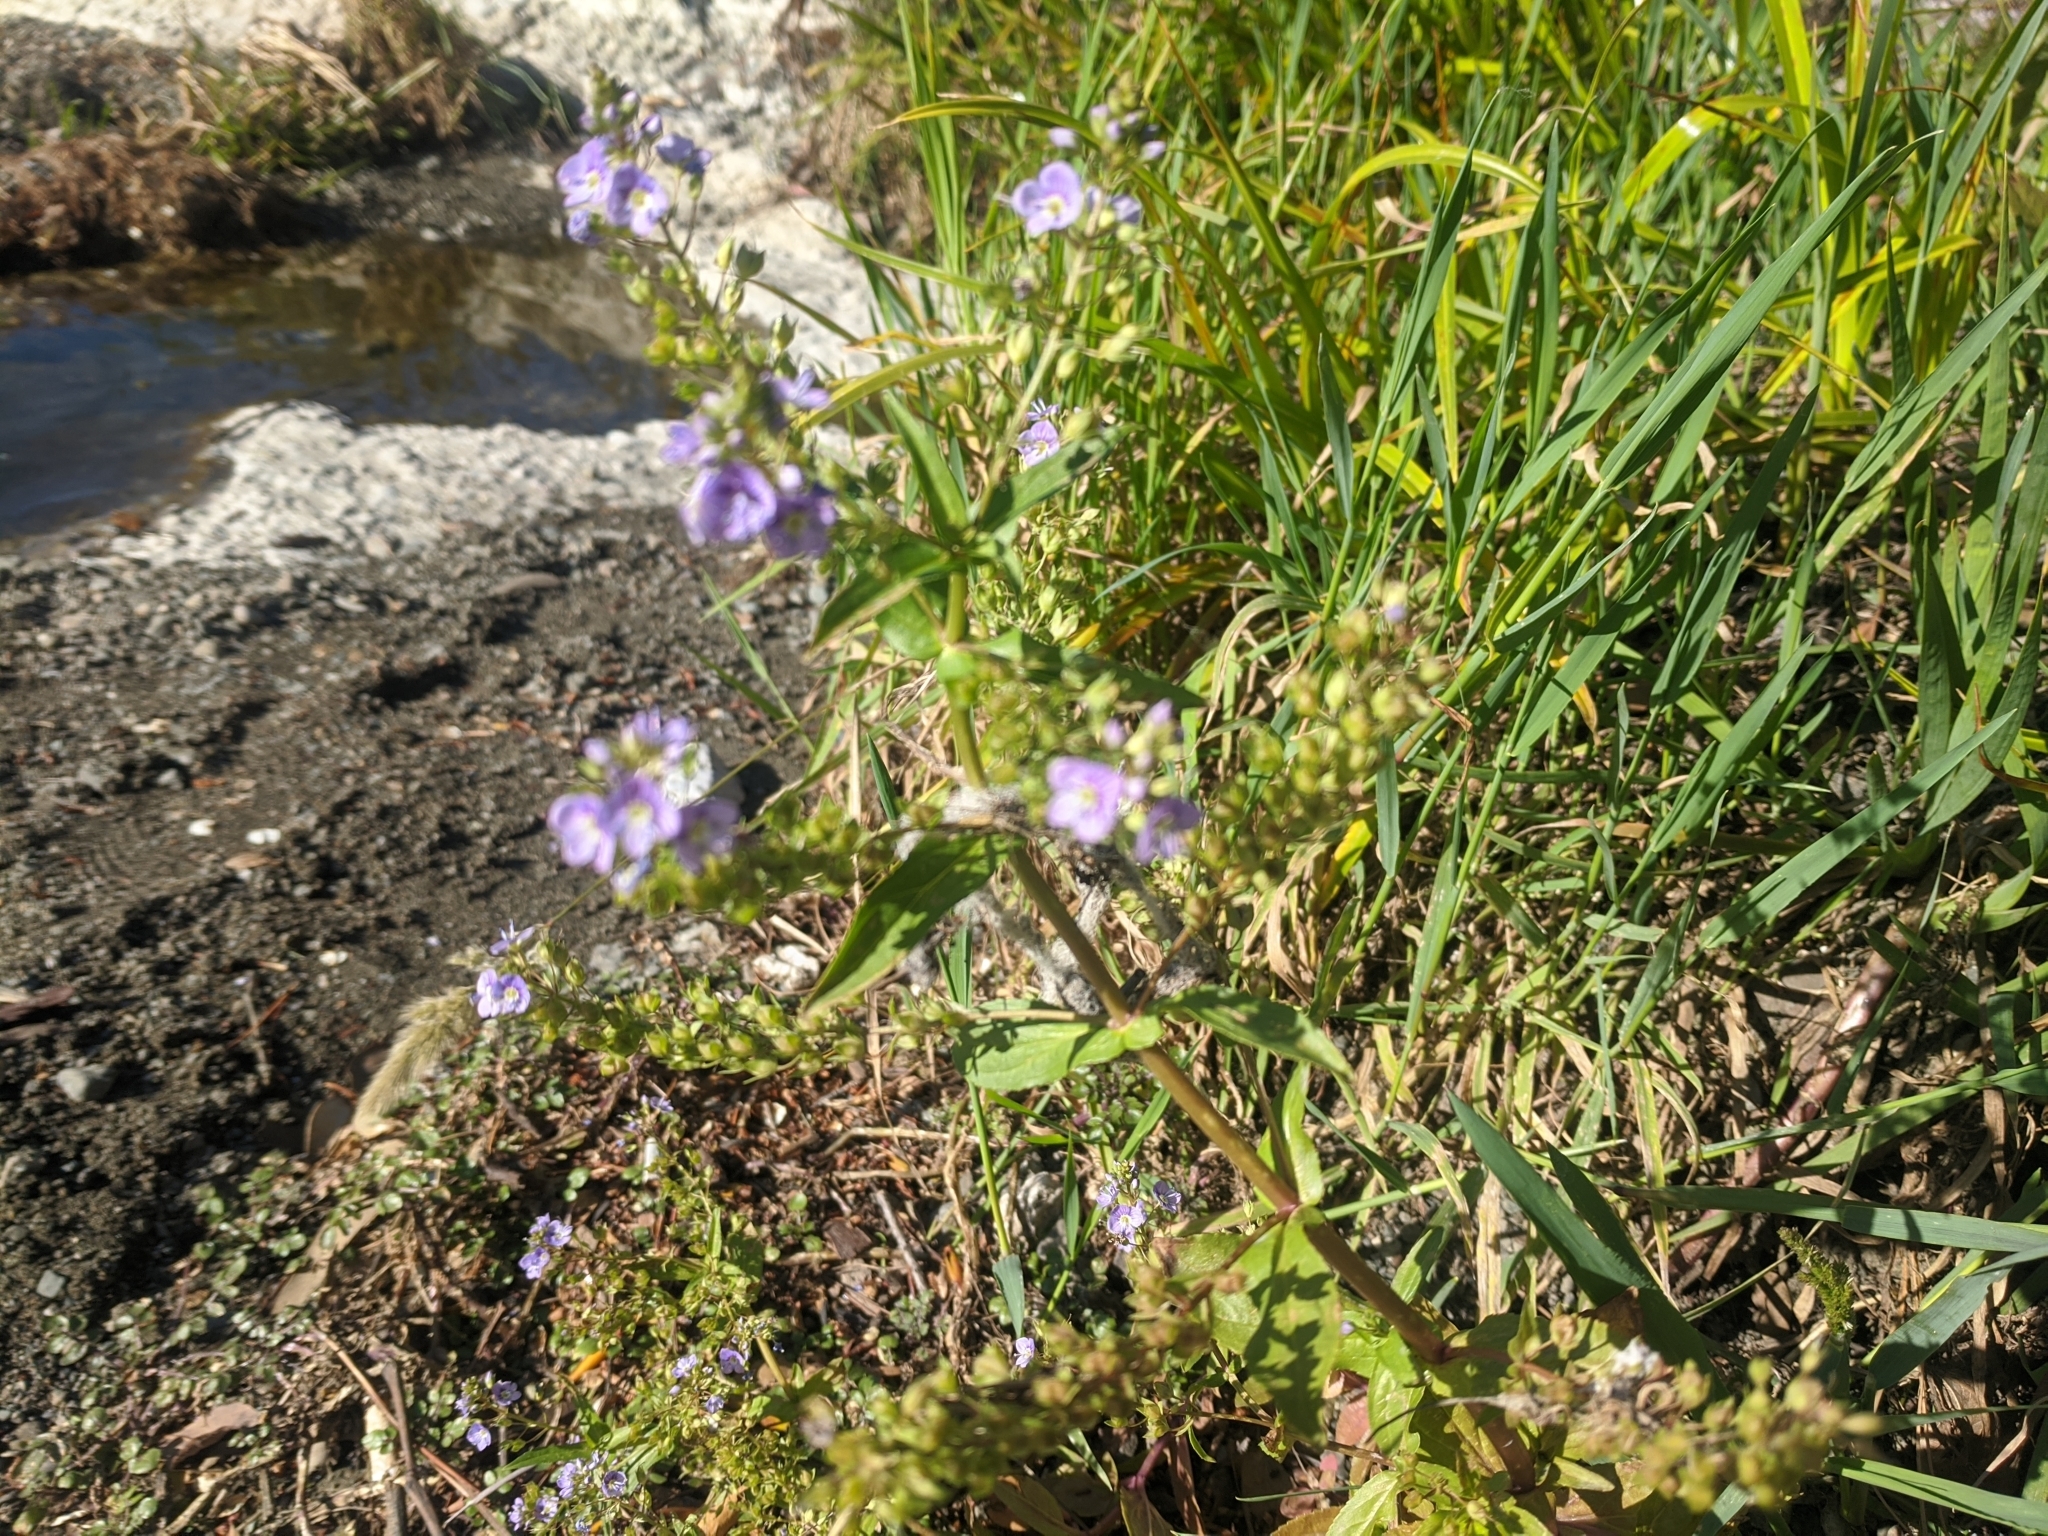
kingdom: Plantae
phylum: Tracheophyta
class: Magnoliopsida
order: Lamiales
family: Plantaginaceae
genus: Veronica
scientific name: Veronica anagallis-aquatica
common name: Water speedwell
